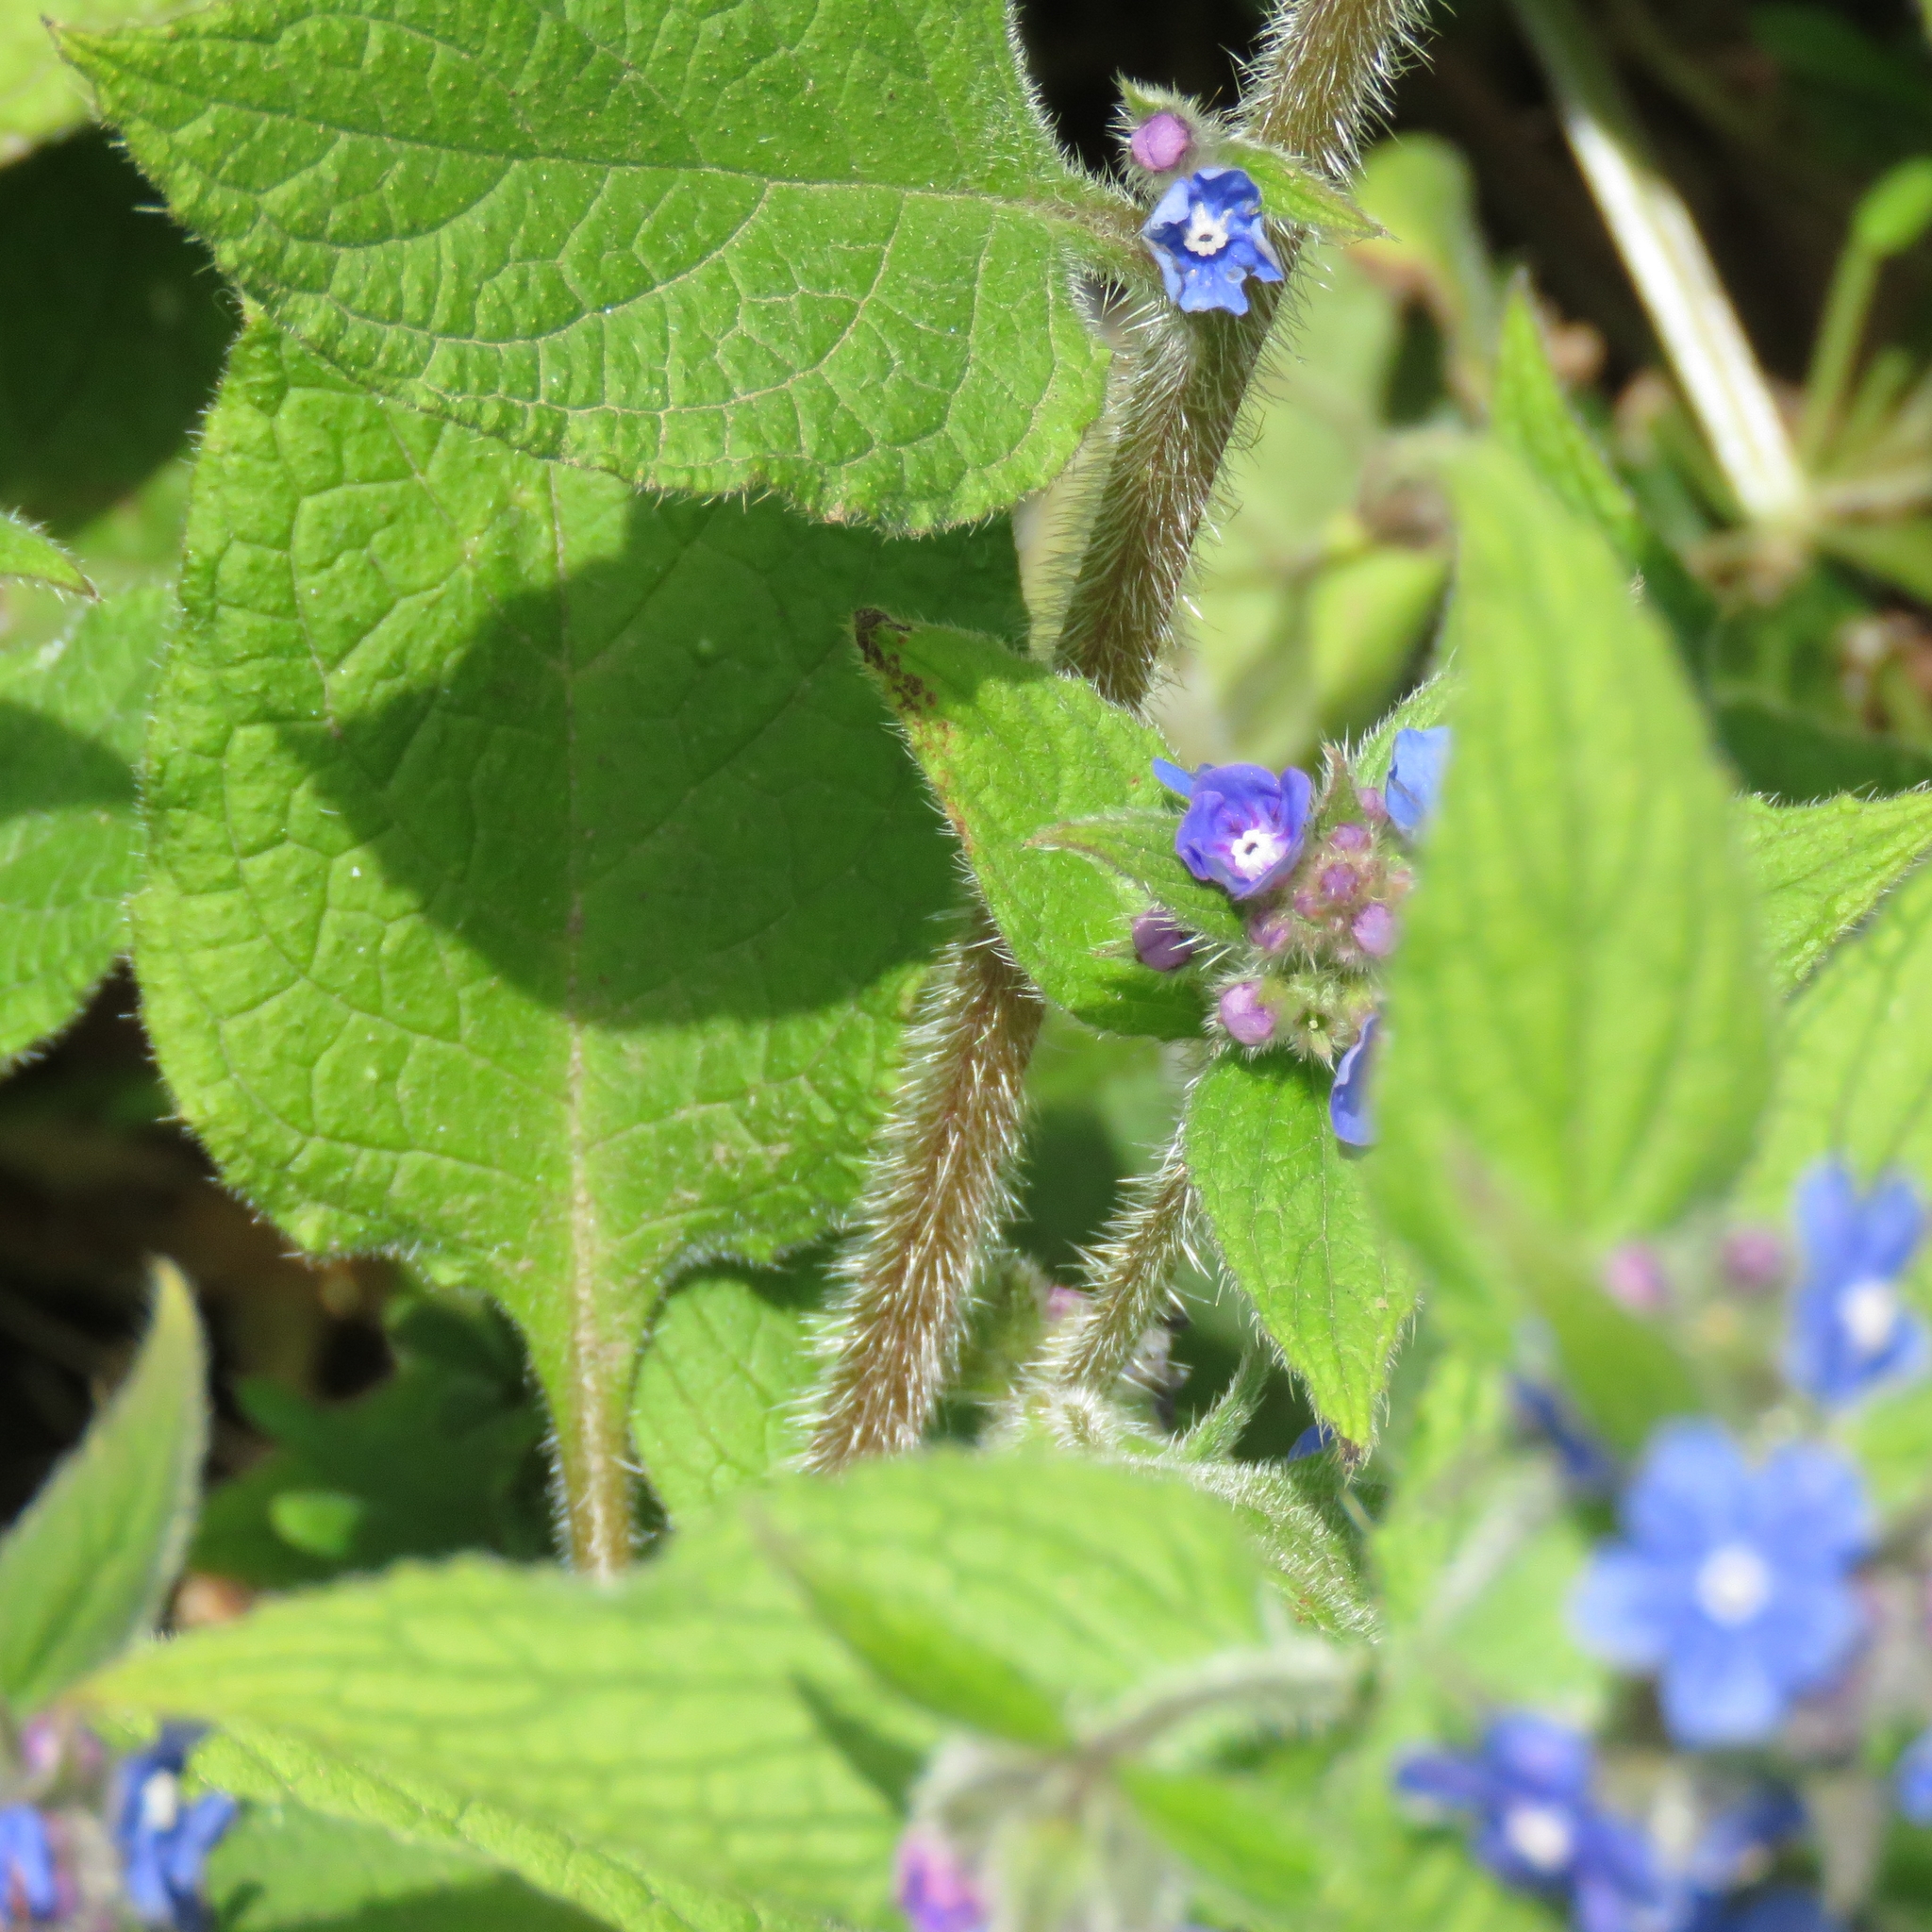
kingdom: Plantae
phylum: Tracheophyta
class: Magnoliopsida
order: Boraginales
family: Boraginaceae
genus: Pentaglottis
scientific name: Pentaglottis sempervirens
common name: Green alkanet
